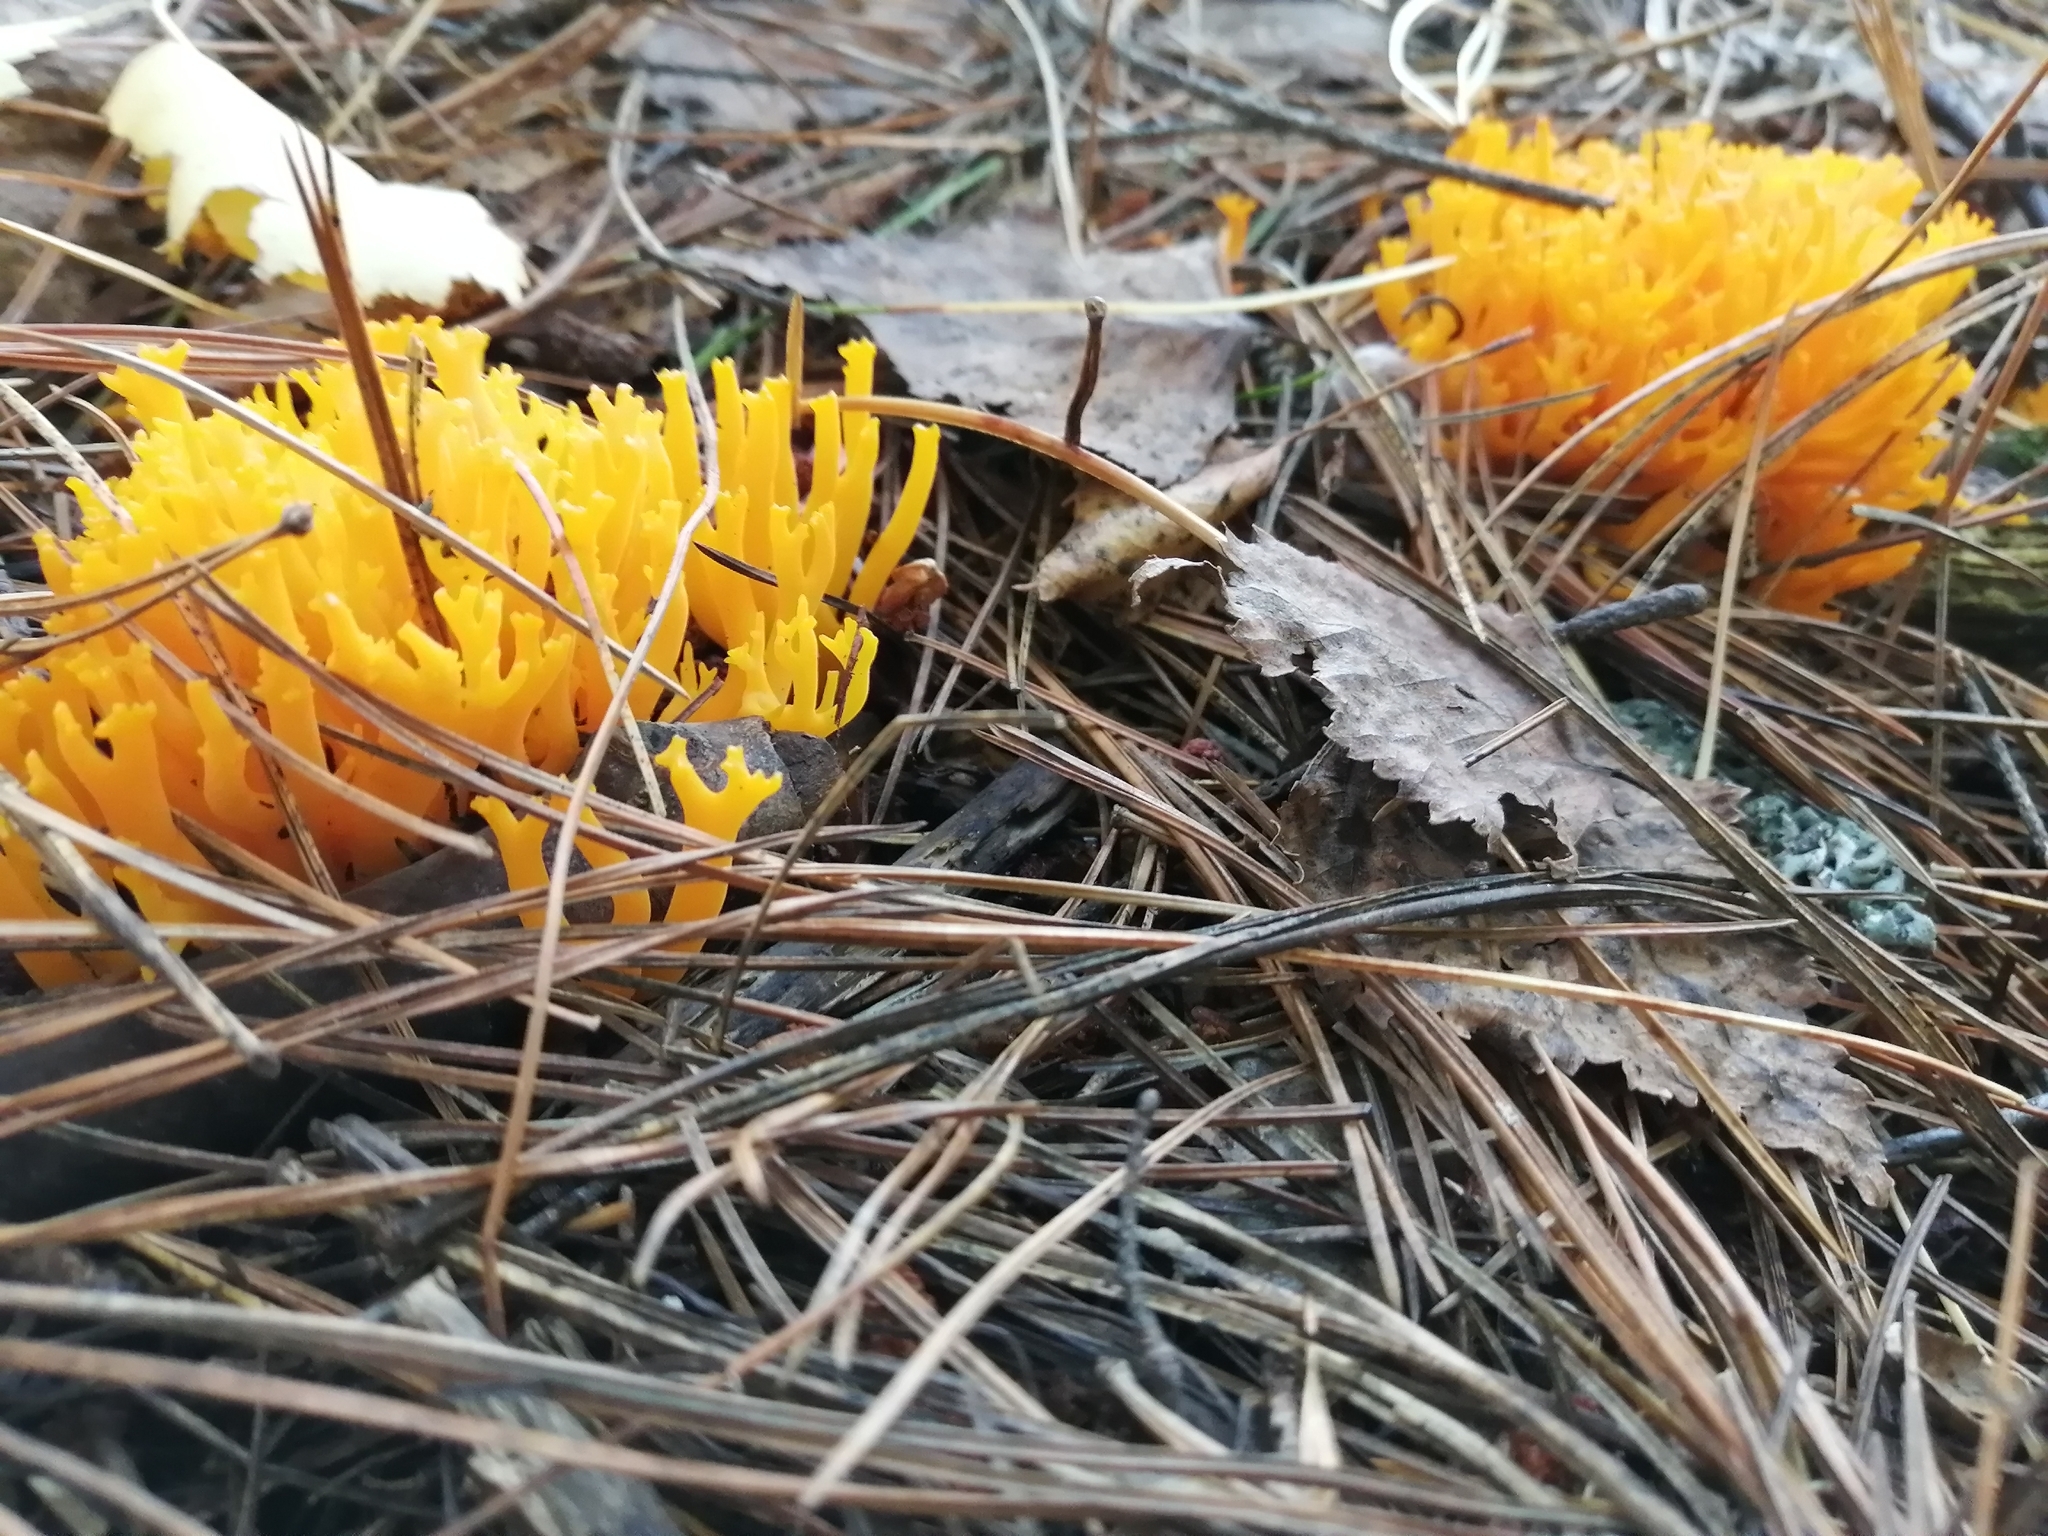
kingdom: Fungi
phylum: Basidiomycota
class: Agaricomycetes
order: Agaricales
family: Clavariaceae
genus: Ramariopsis
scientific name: Ramariopsis crocea
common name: Orange coral
